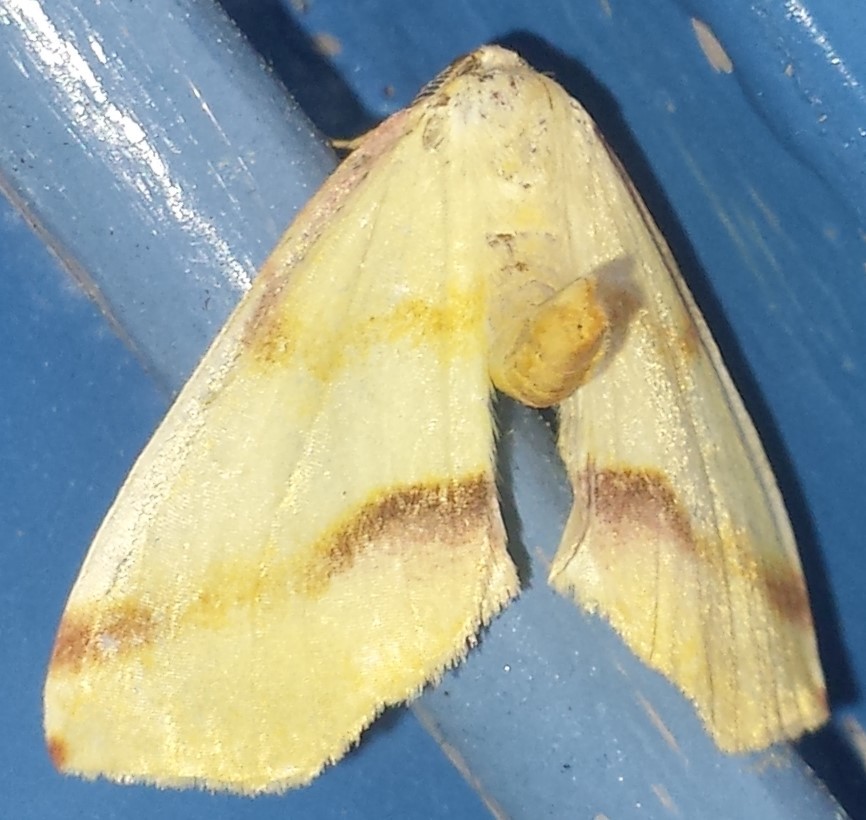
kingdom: Animalia
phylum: Arthropoda
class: Insecta
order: Lepidoptera
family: Geometridae
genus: Plagodis
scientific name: Plagodis serinaria
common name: Lemon plagodis
